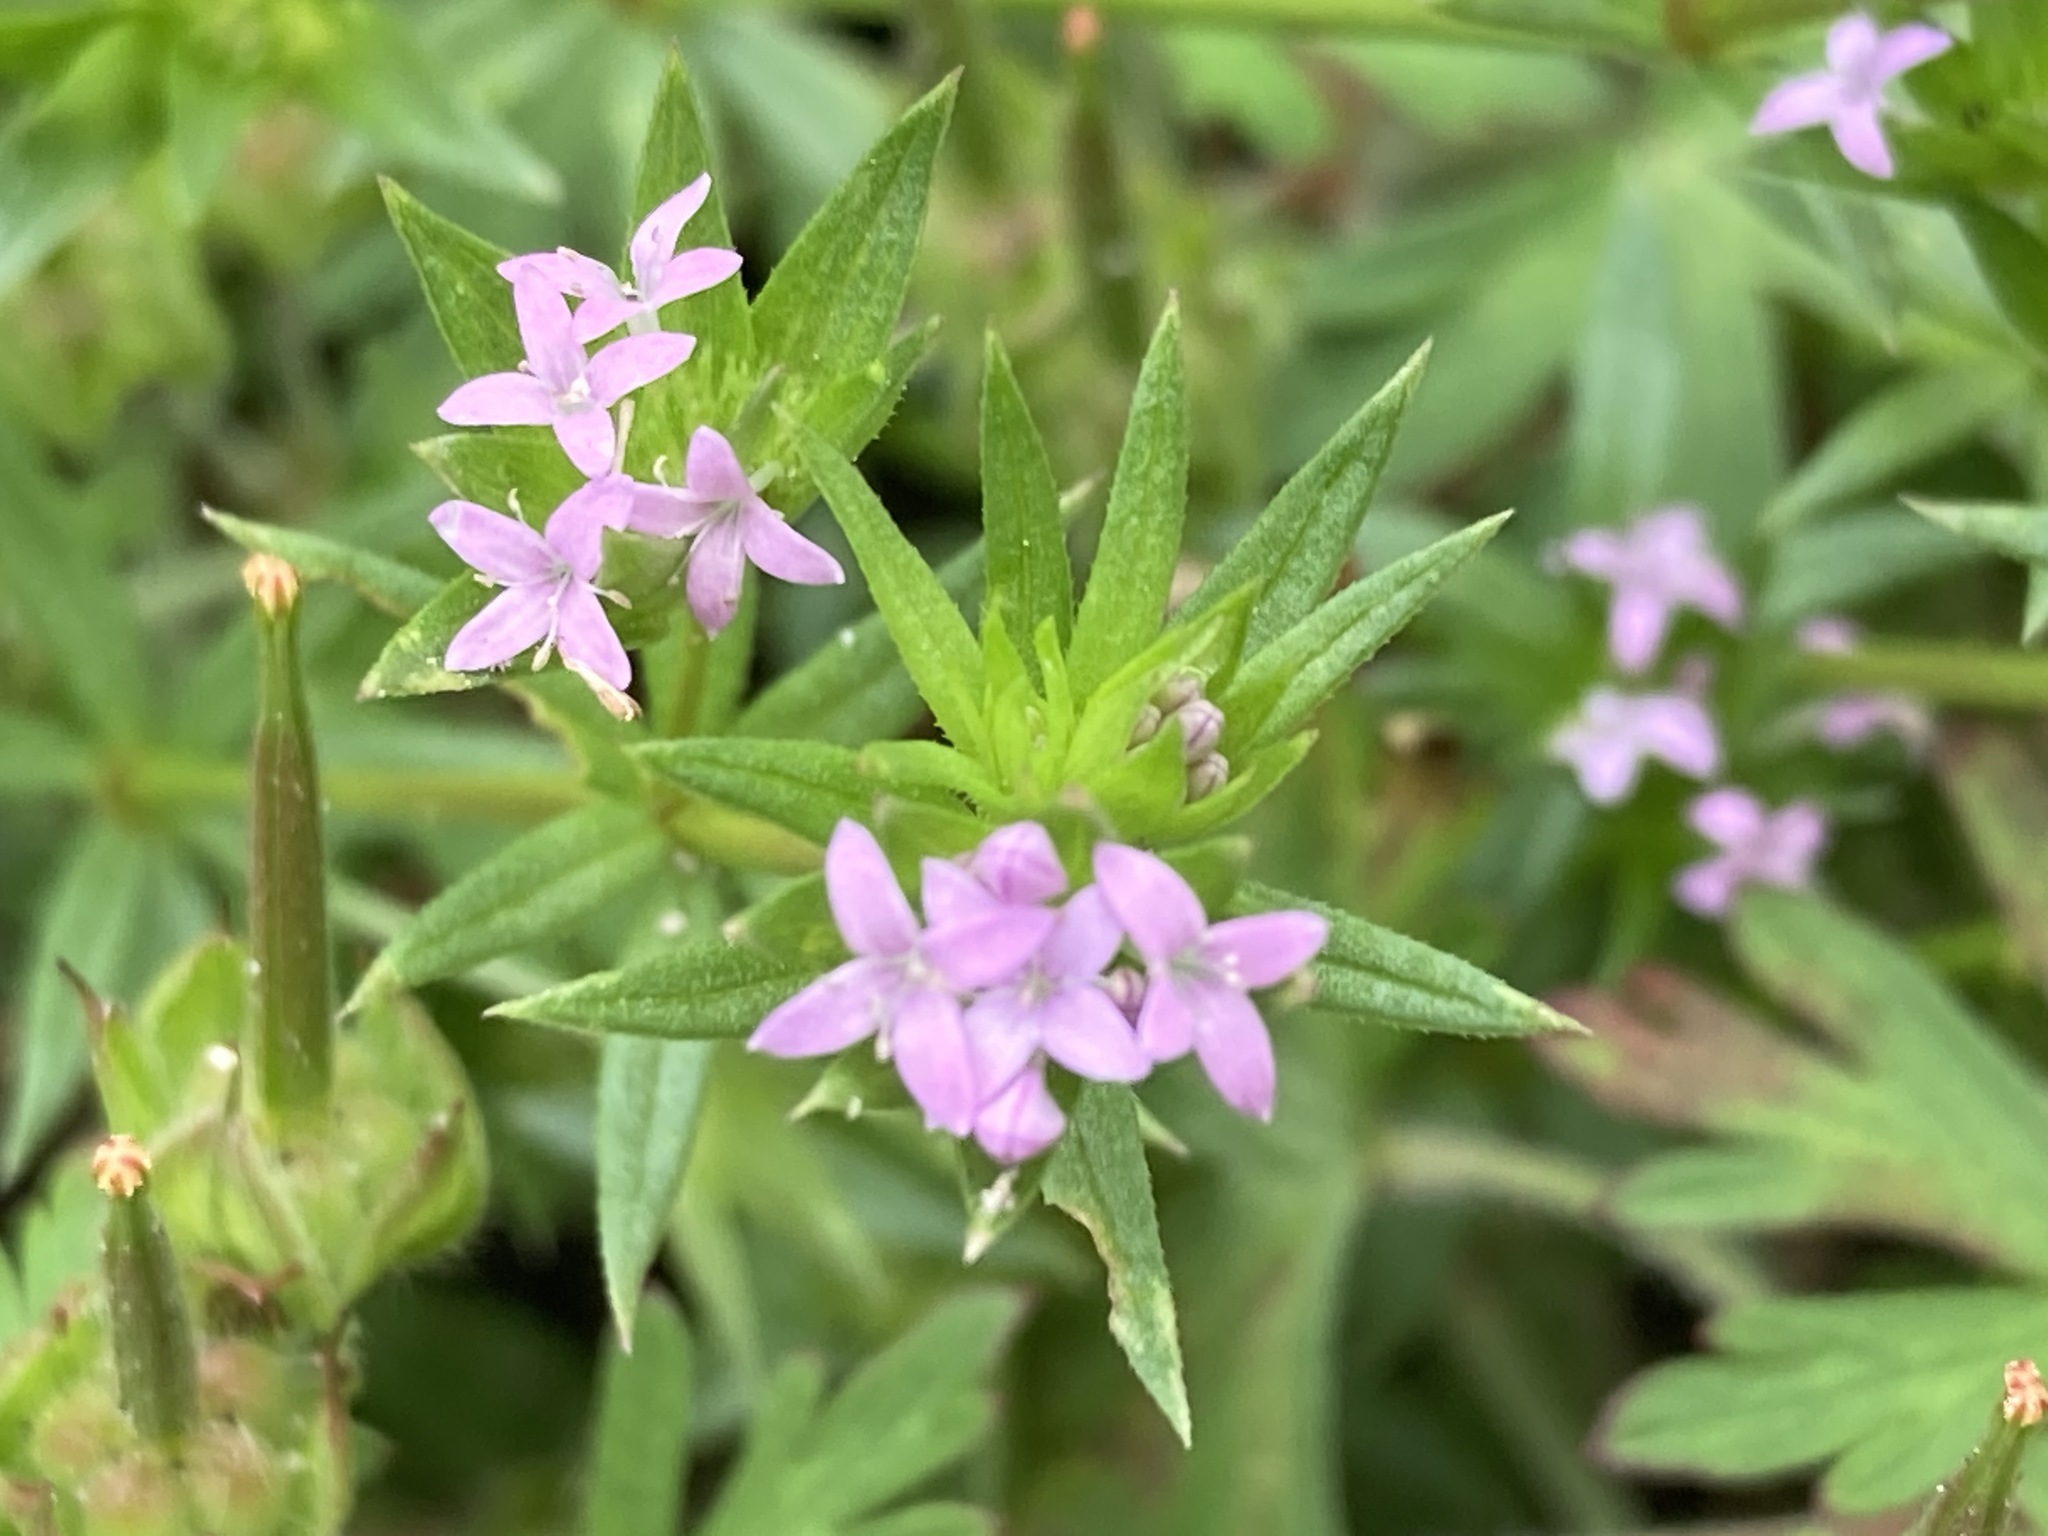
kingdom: Plantae
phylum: Tracheophyta
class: Magnoliopsida
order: Gentianales
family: Rubiaceae
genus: Sherardia
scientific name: Sherardia arvensis
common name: Field madder
